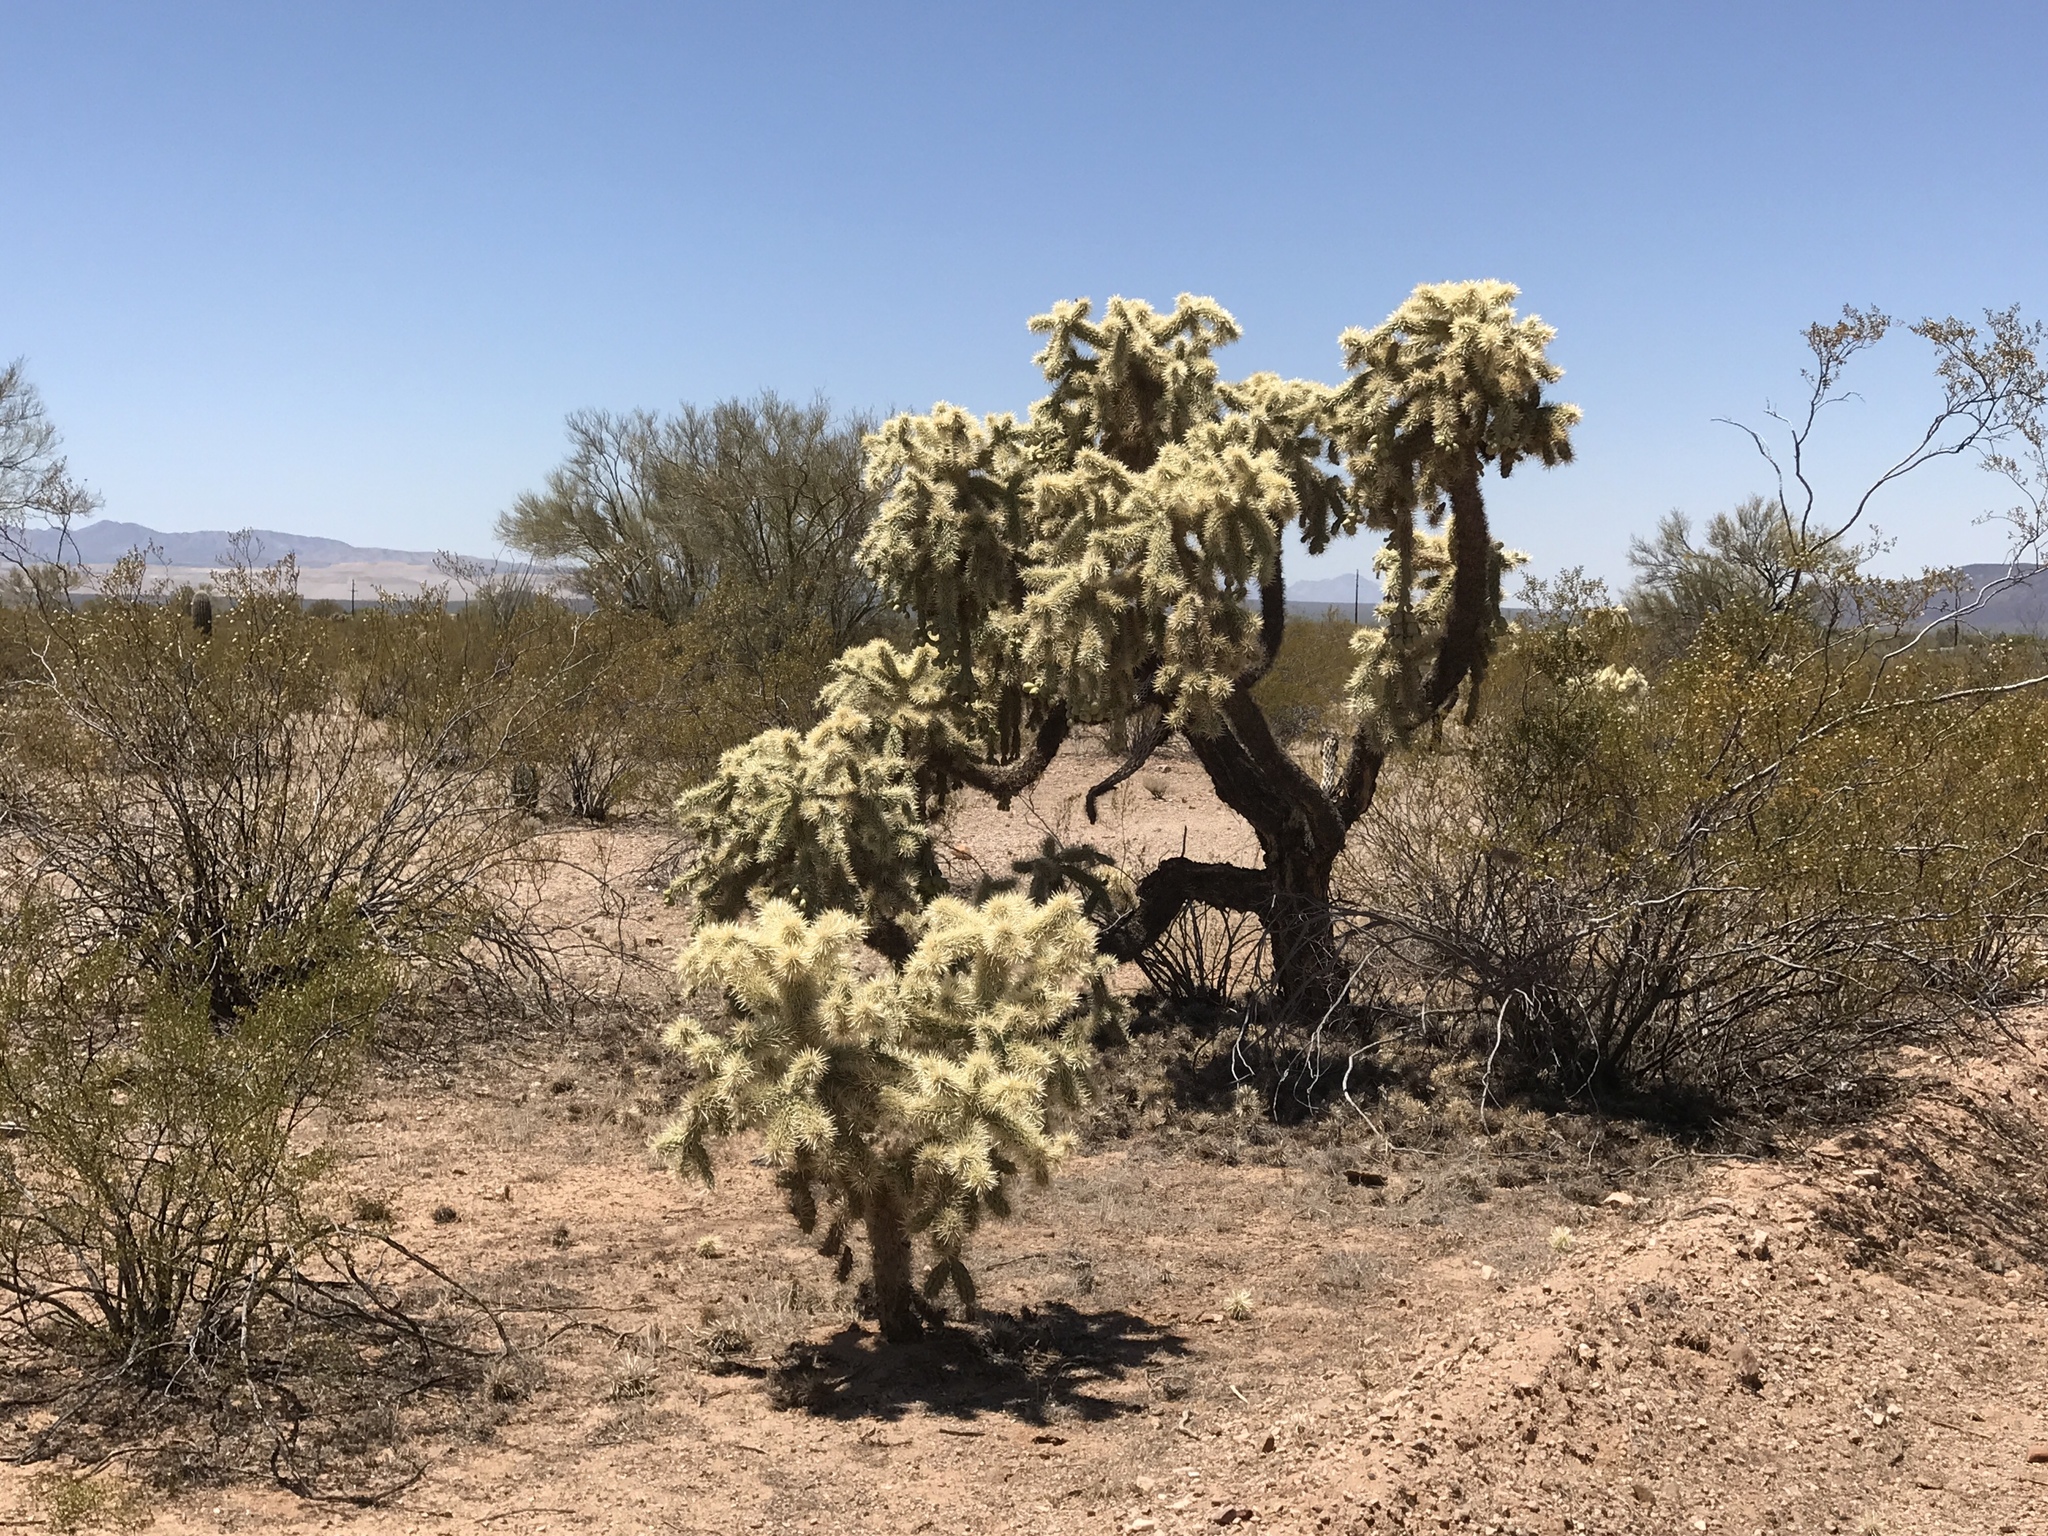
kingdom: Plantae
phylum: Tracheophyta
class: Magnoliopsida
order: Caryophyllales
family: Cactaceae
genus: Cylindropuntia
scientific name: Cylindropuntia fulgida
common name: Jumping cholla
